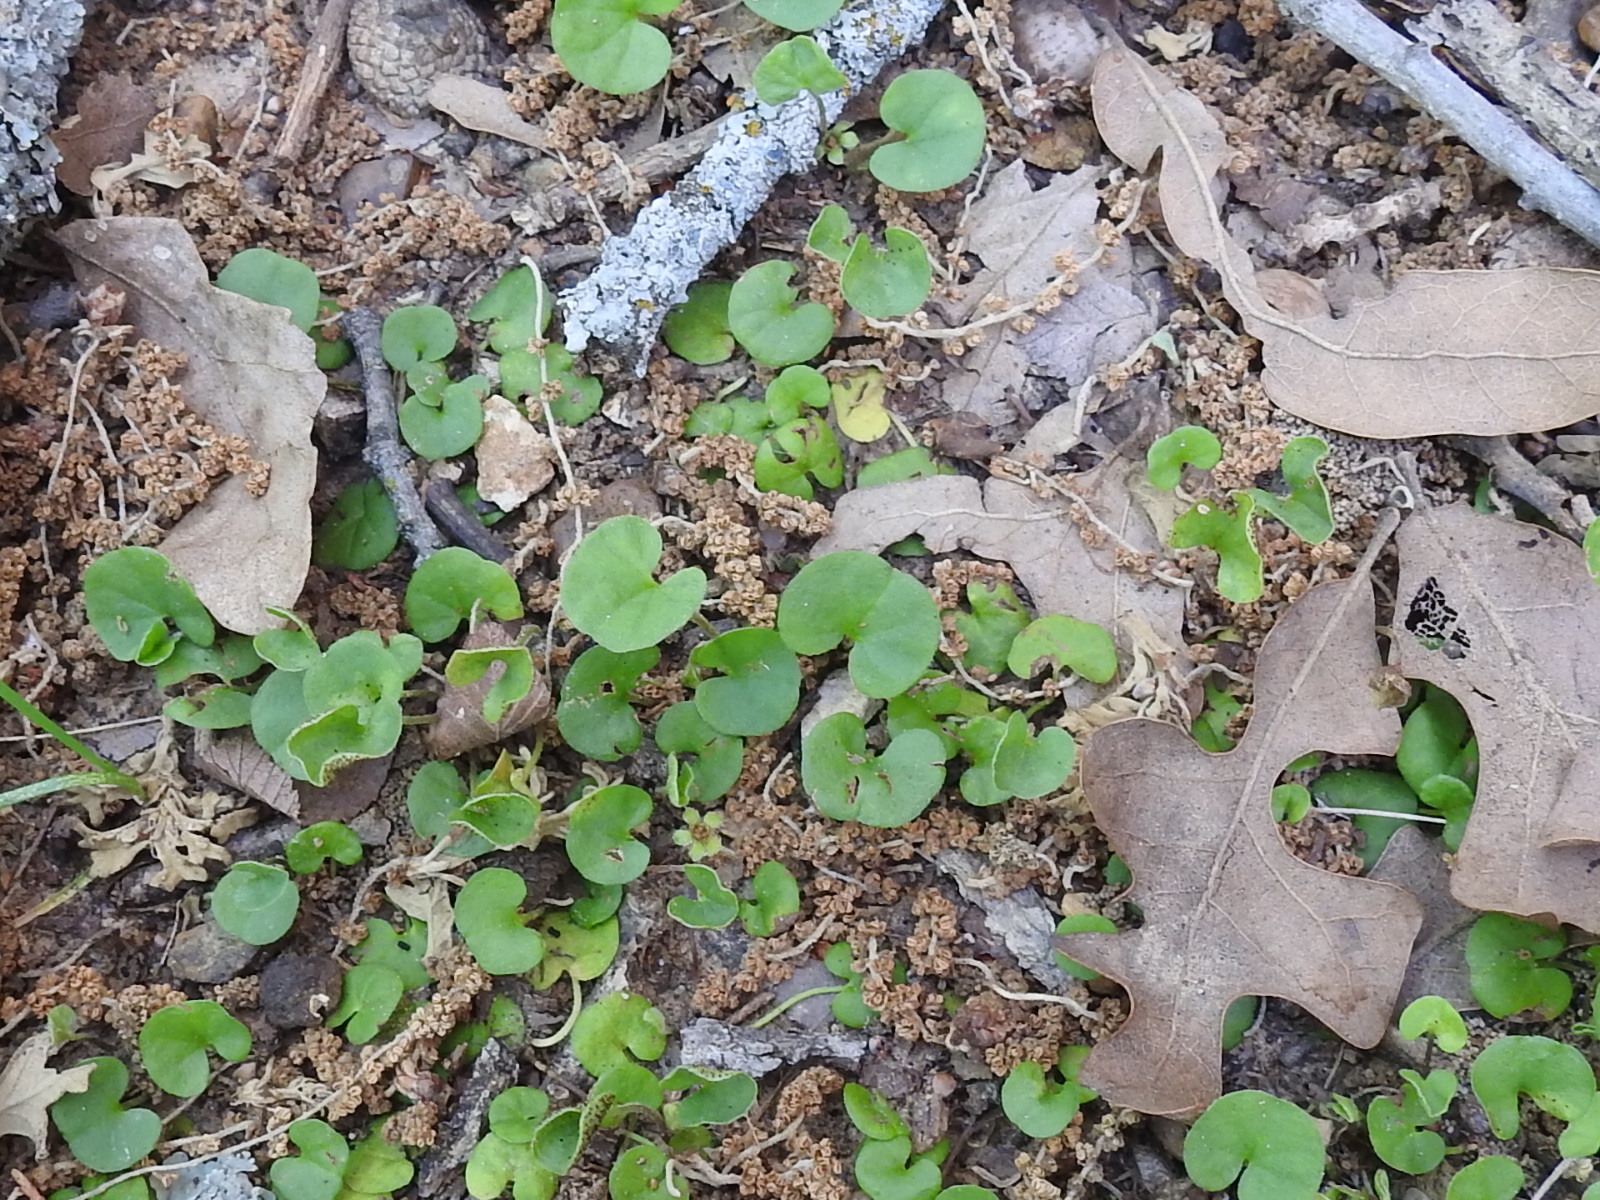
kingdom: Plantae
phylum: Tracheophyta
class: Magnoliopsida
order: Solanales
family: Convolvulaceae
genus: Dichondra
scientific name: Dichondra carolinensis
